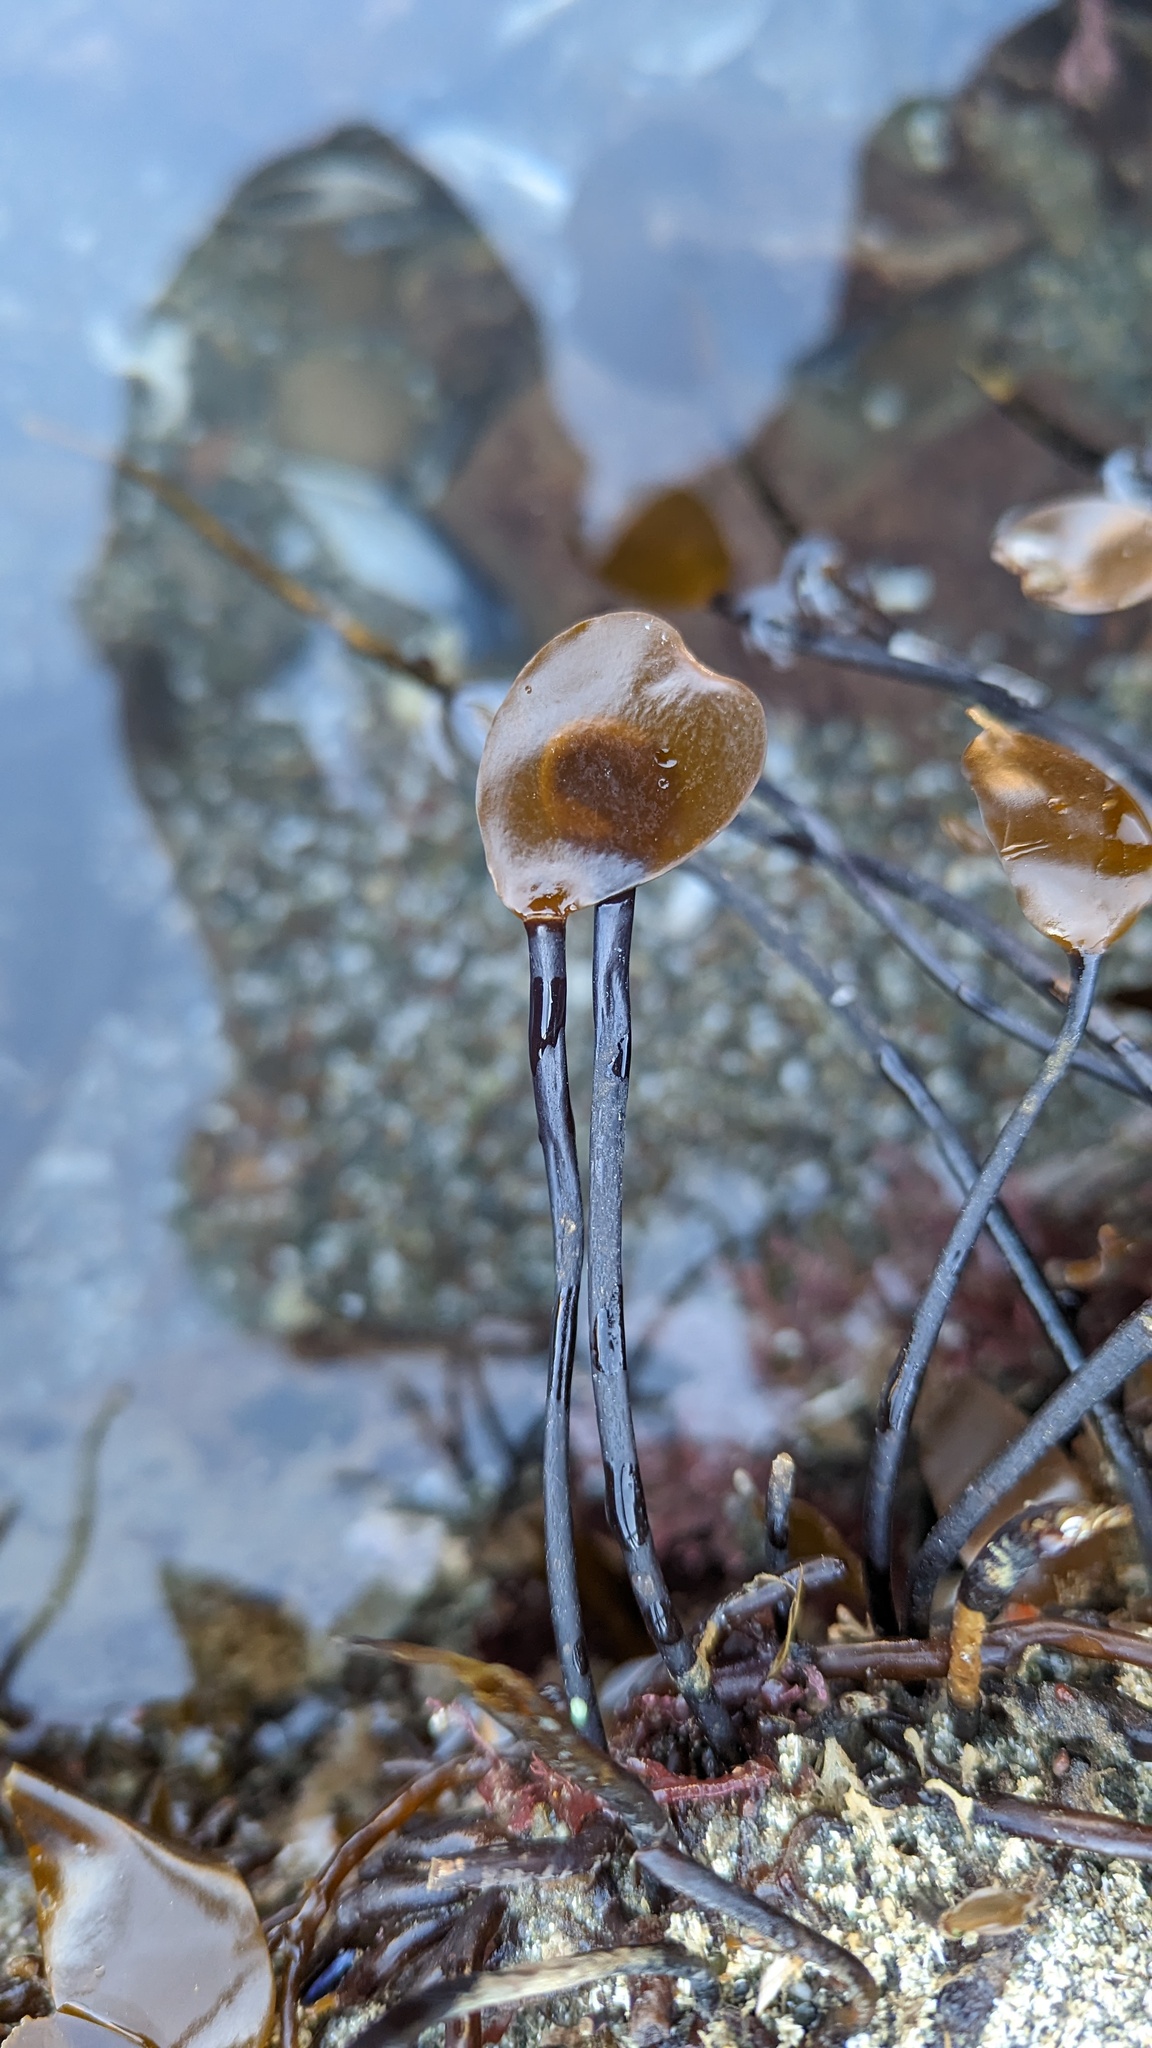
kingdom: Chromista
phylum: Ochrophyta
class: Phaeophyceae
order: Laminariales
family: Laminariaceae
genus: Laminaria
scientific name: Laminaria sinclairii
